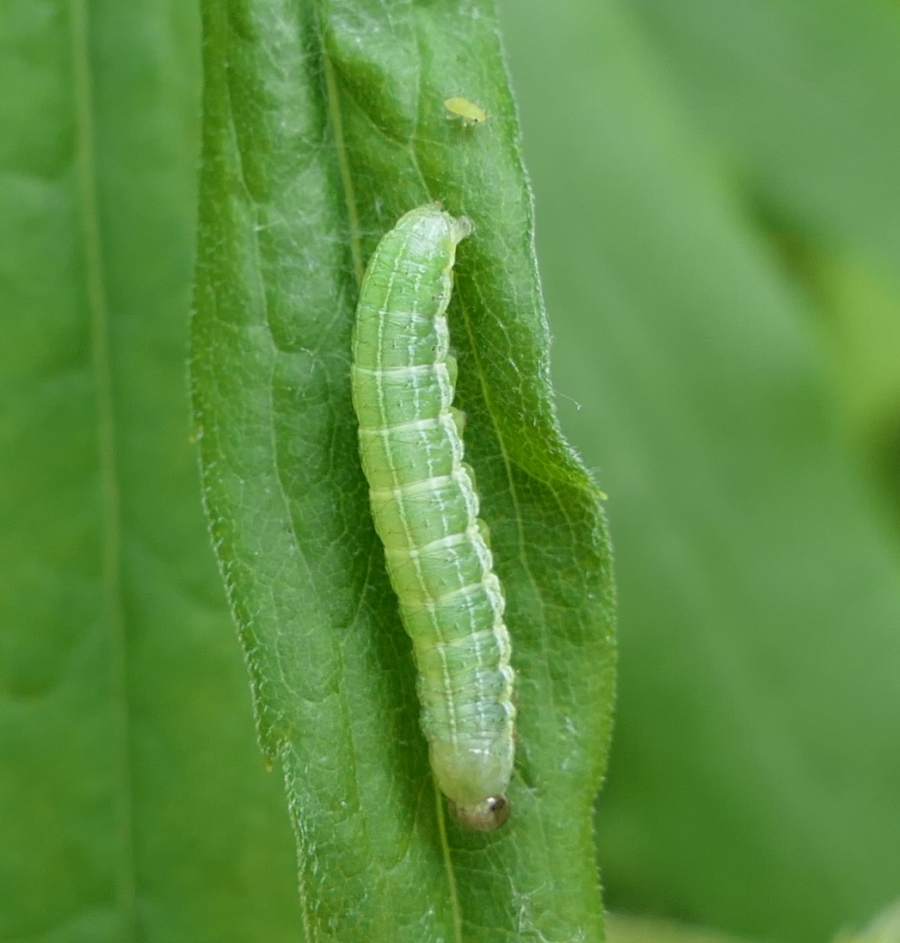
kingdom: Animalia
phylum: Arthropoda
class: Insecta
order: Lepidoptera
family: Noctuidae
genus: Loscopia
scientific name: Loscopia velata
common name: Veiled ear moth
